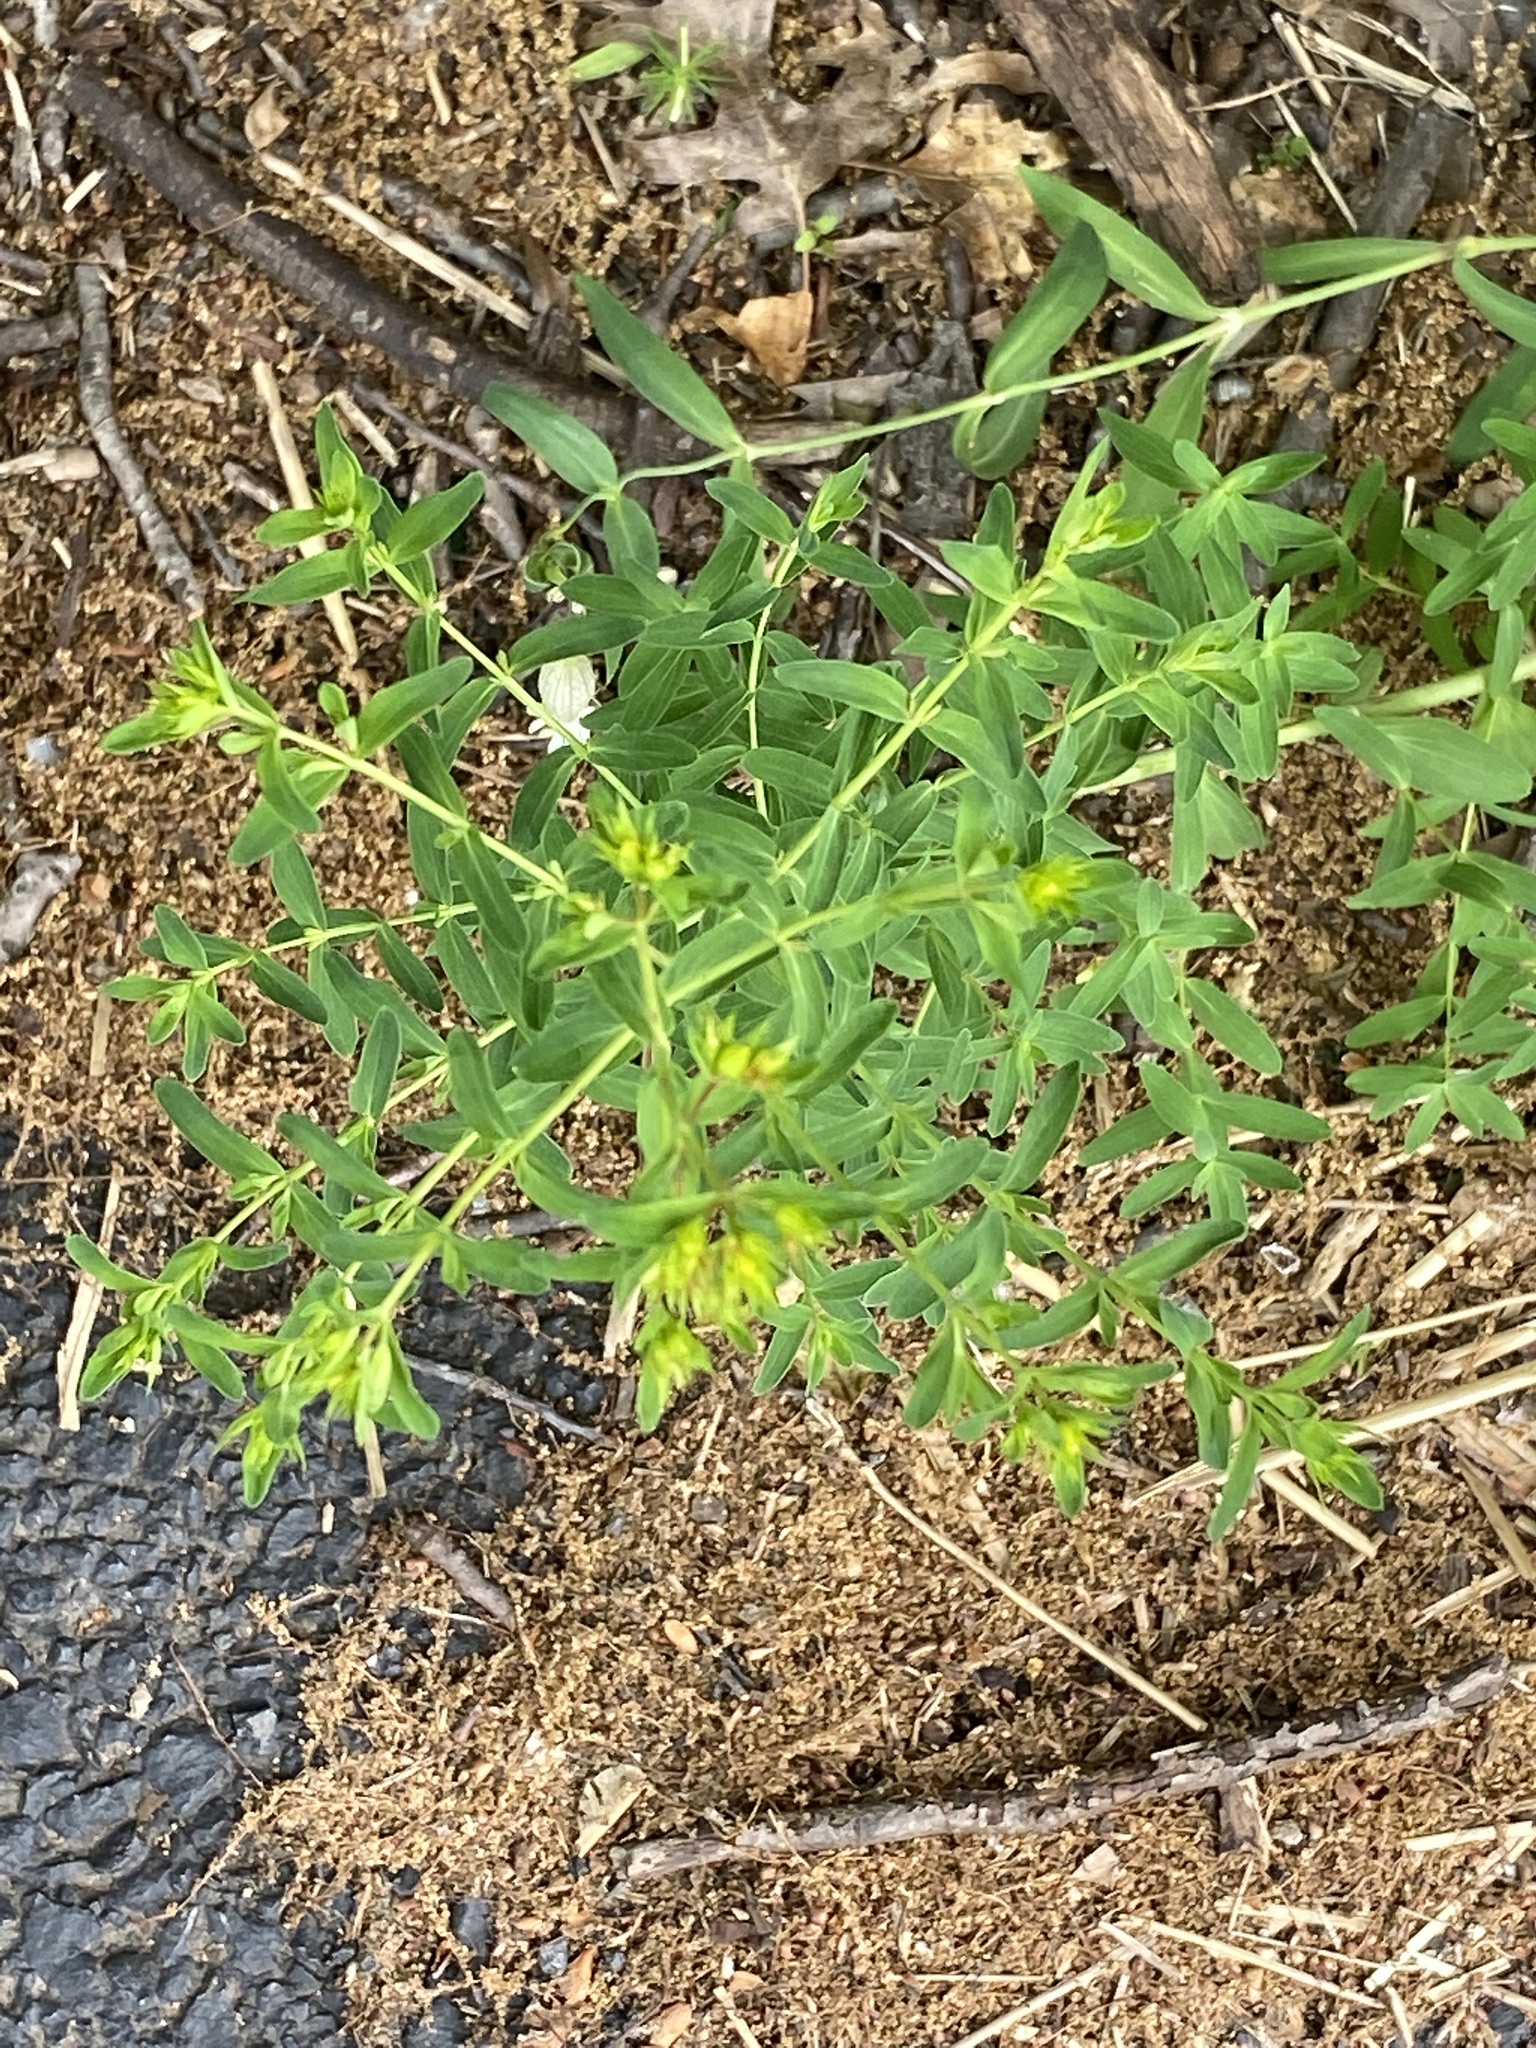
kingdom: Plantae
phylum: Tracheophyta
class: Magnoliopsida
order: Malpighiales
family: Hypericaceae
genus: Hypericum
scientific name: Hypericum perforatum
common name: Common st. johnswort
